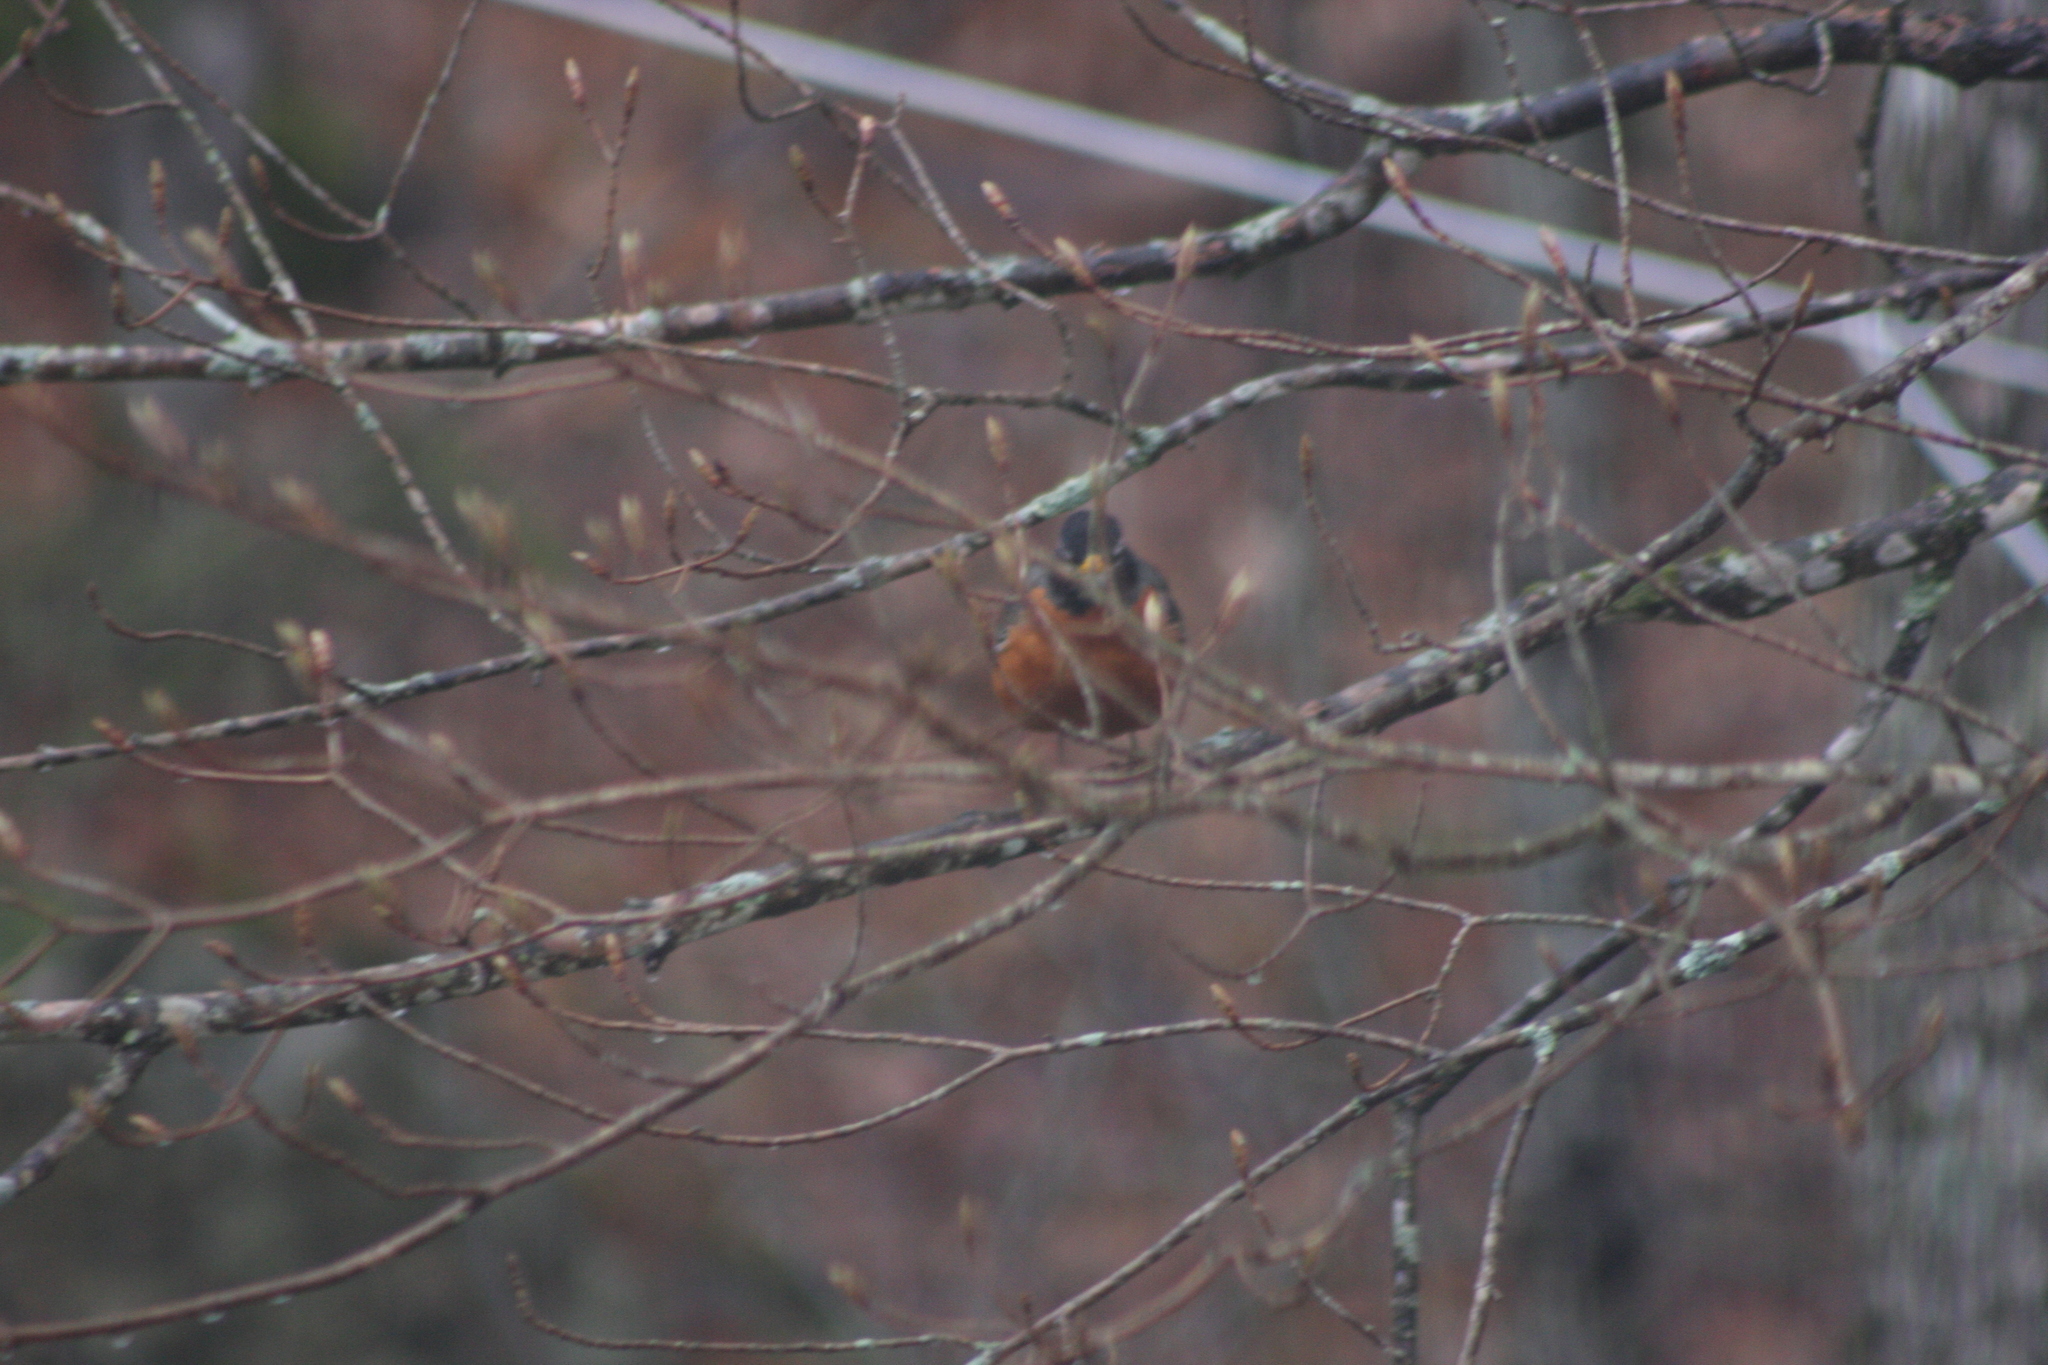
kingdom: Animalia
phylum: Chordata
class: Aves
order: Passeriformes
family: Turdidae
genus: Turdus
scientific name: Turdus migratorius
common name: American robin
